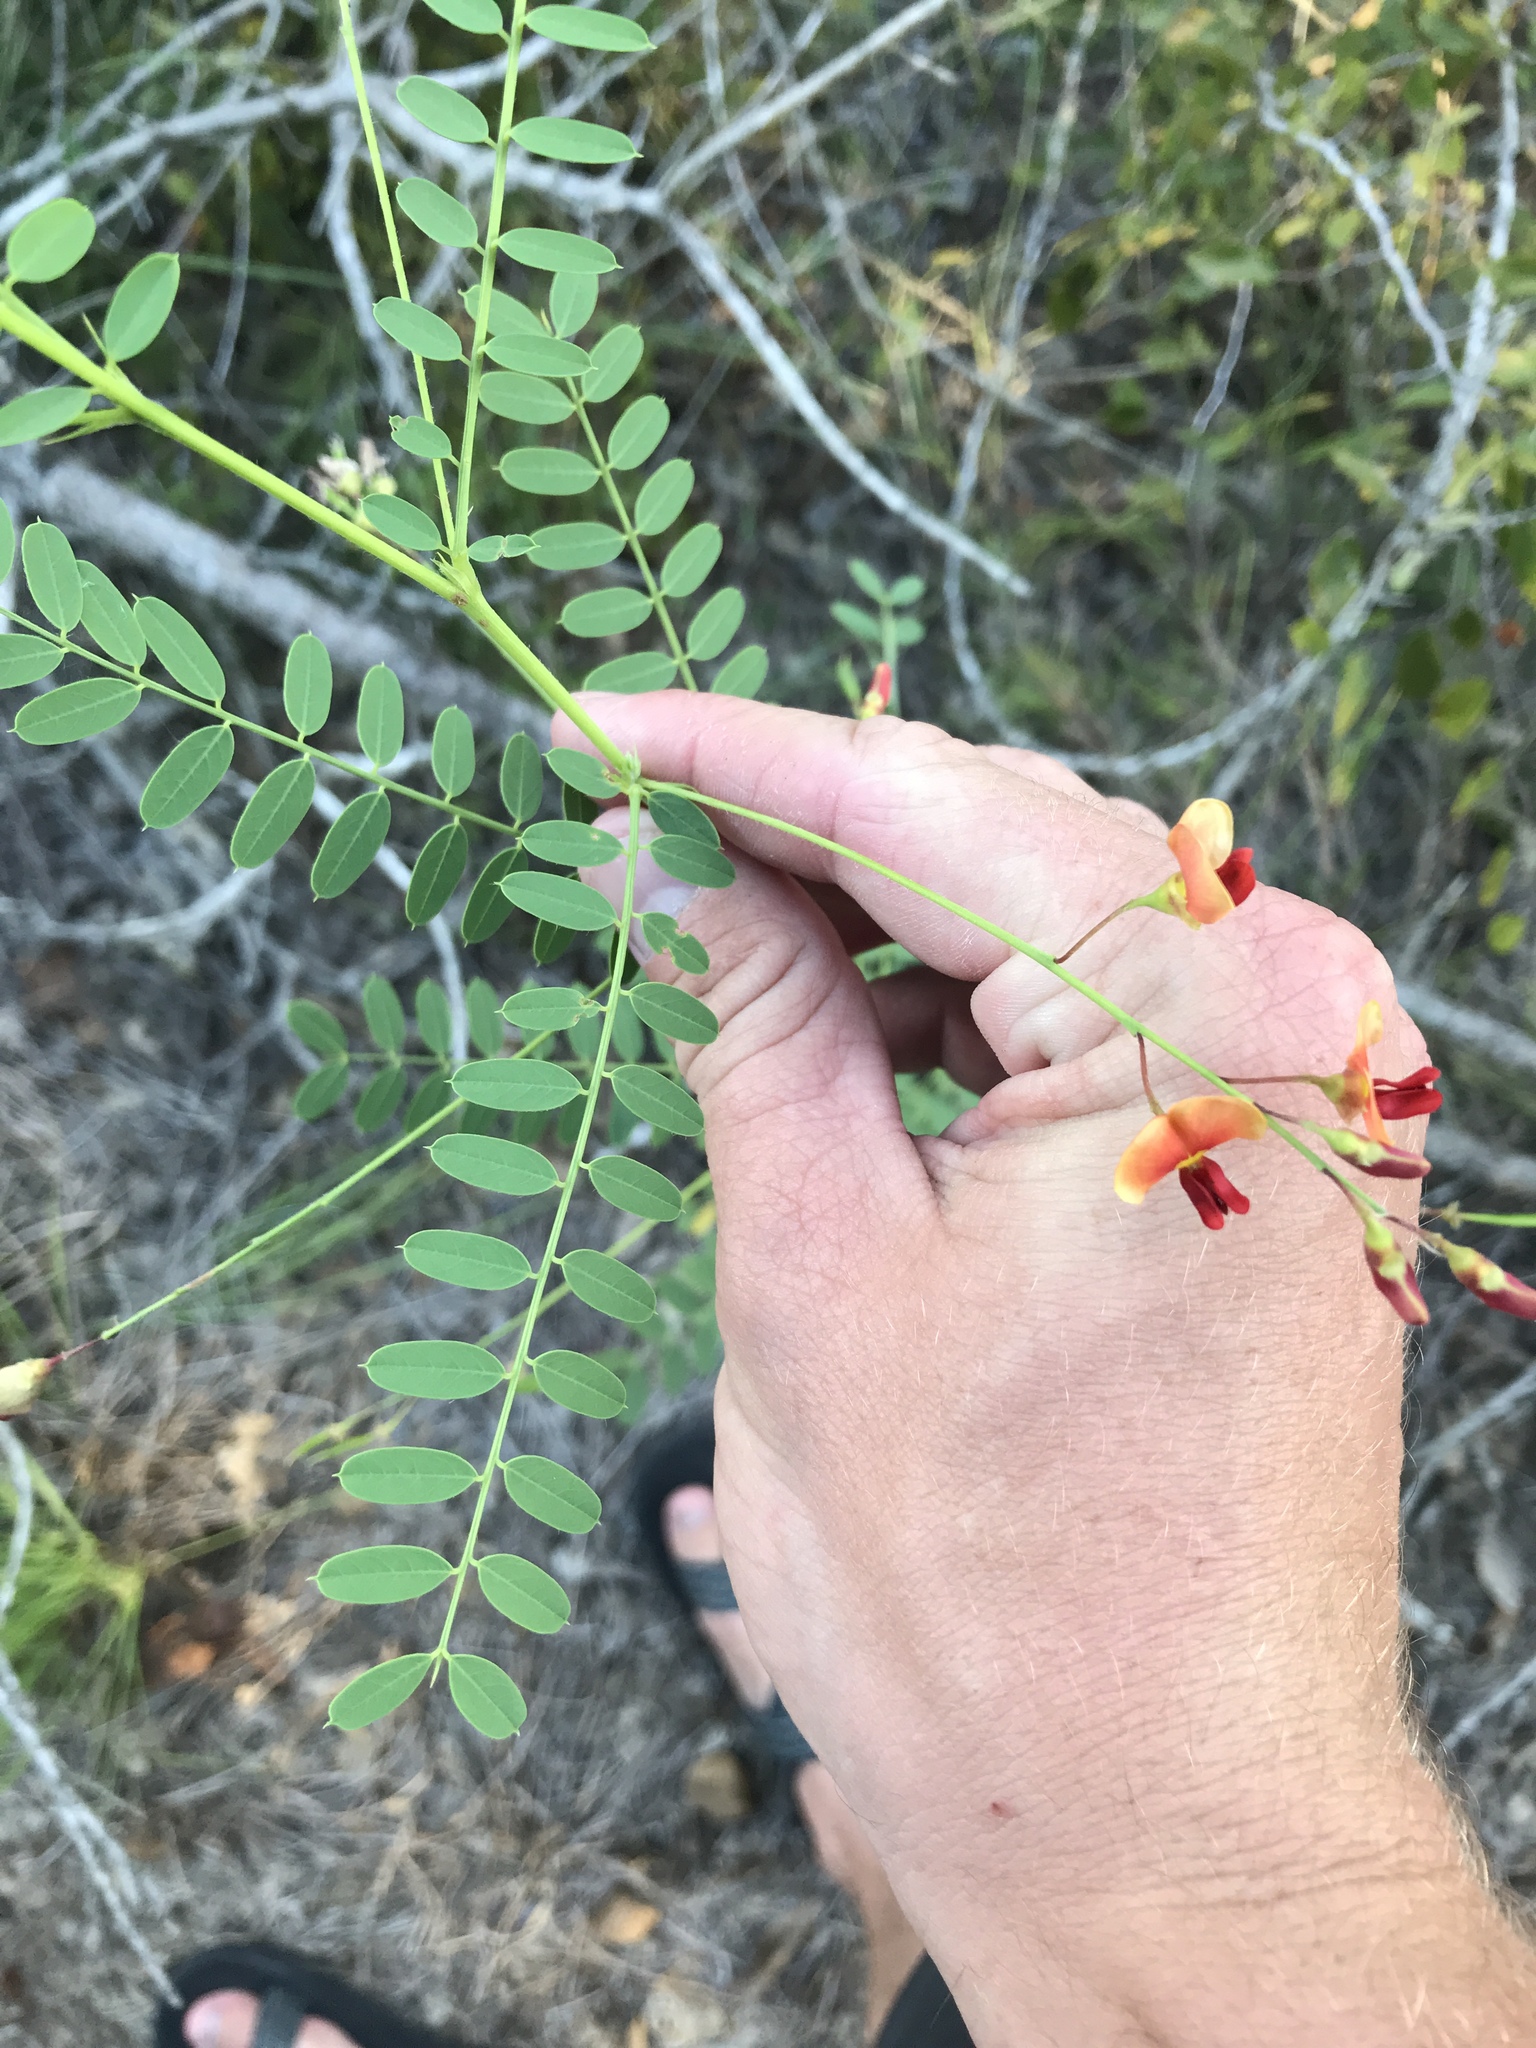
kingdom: Plantae
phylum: Tracheophyta
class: Magnoliopsida
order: Fabales
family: Fabaceae
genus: Sesbania
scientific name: Sesbania vesicaria
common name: Bagpod
